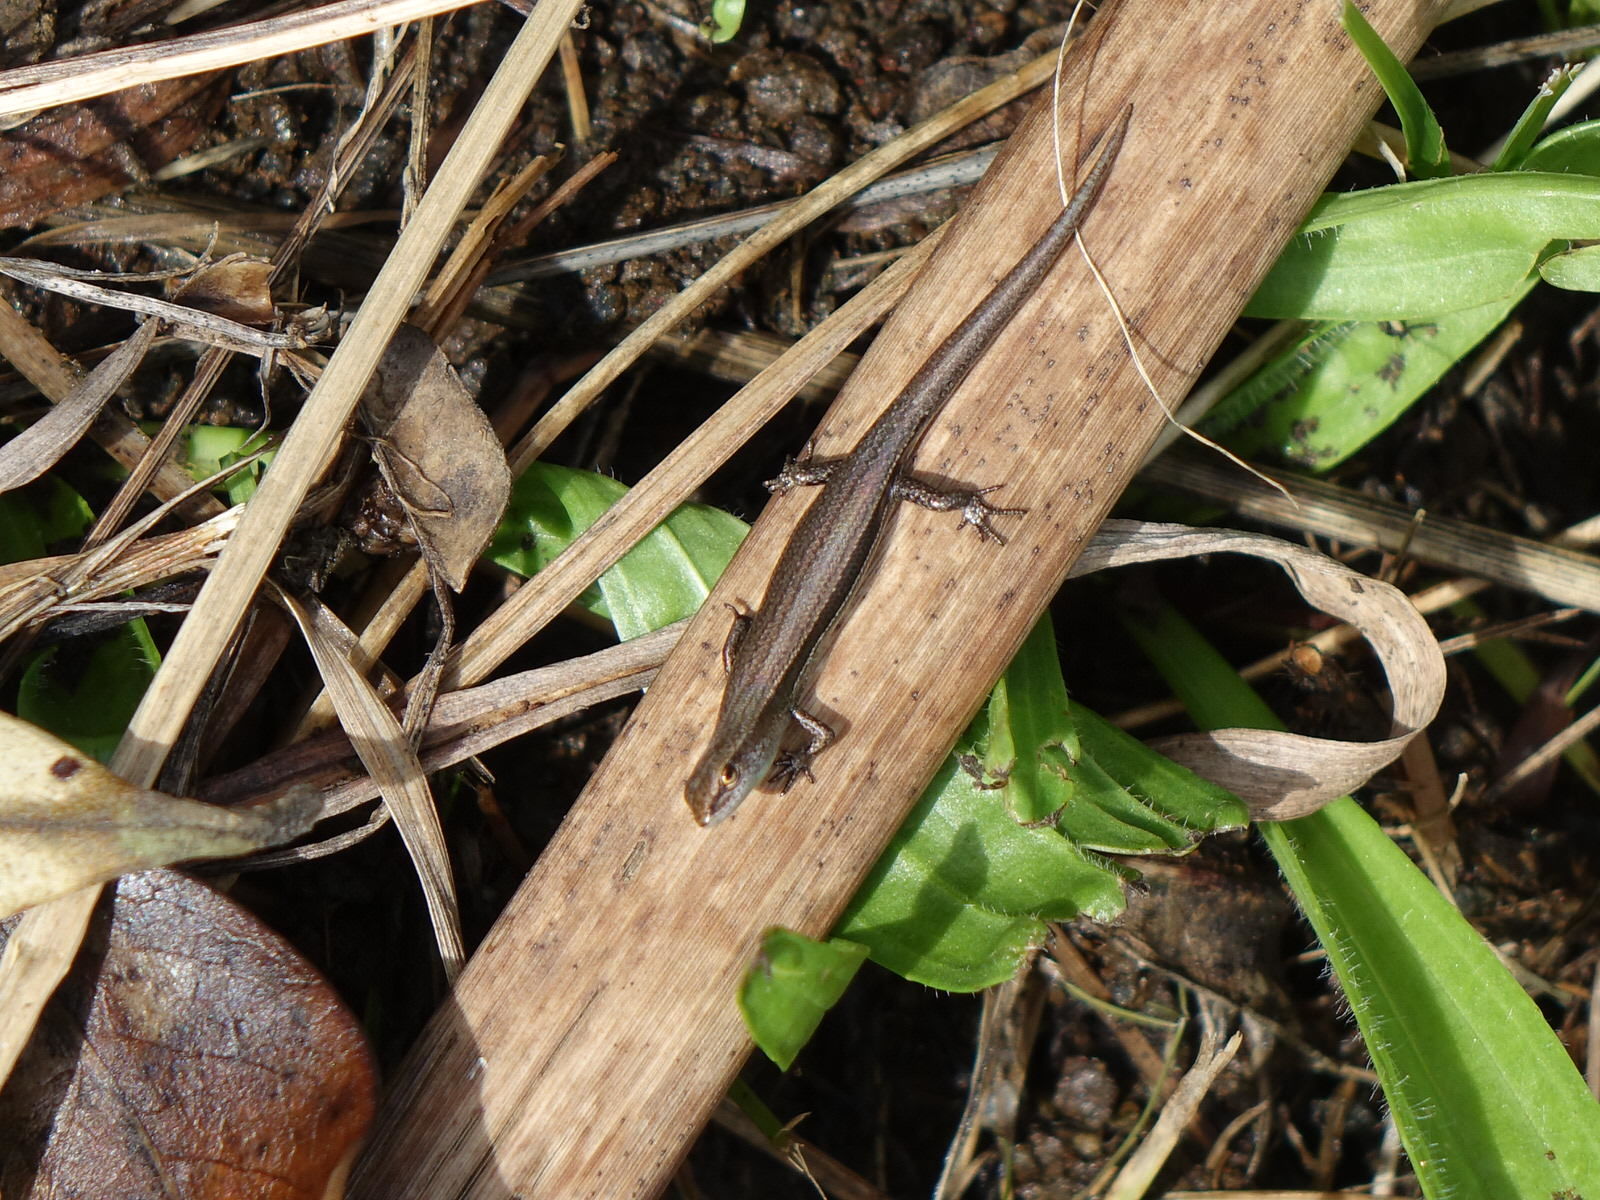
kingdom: Animalia
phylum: Chordata
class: Squamata
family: Scincidae
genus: Lampropholis
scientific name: Lampropholis delicata
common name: Plague skink
